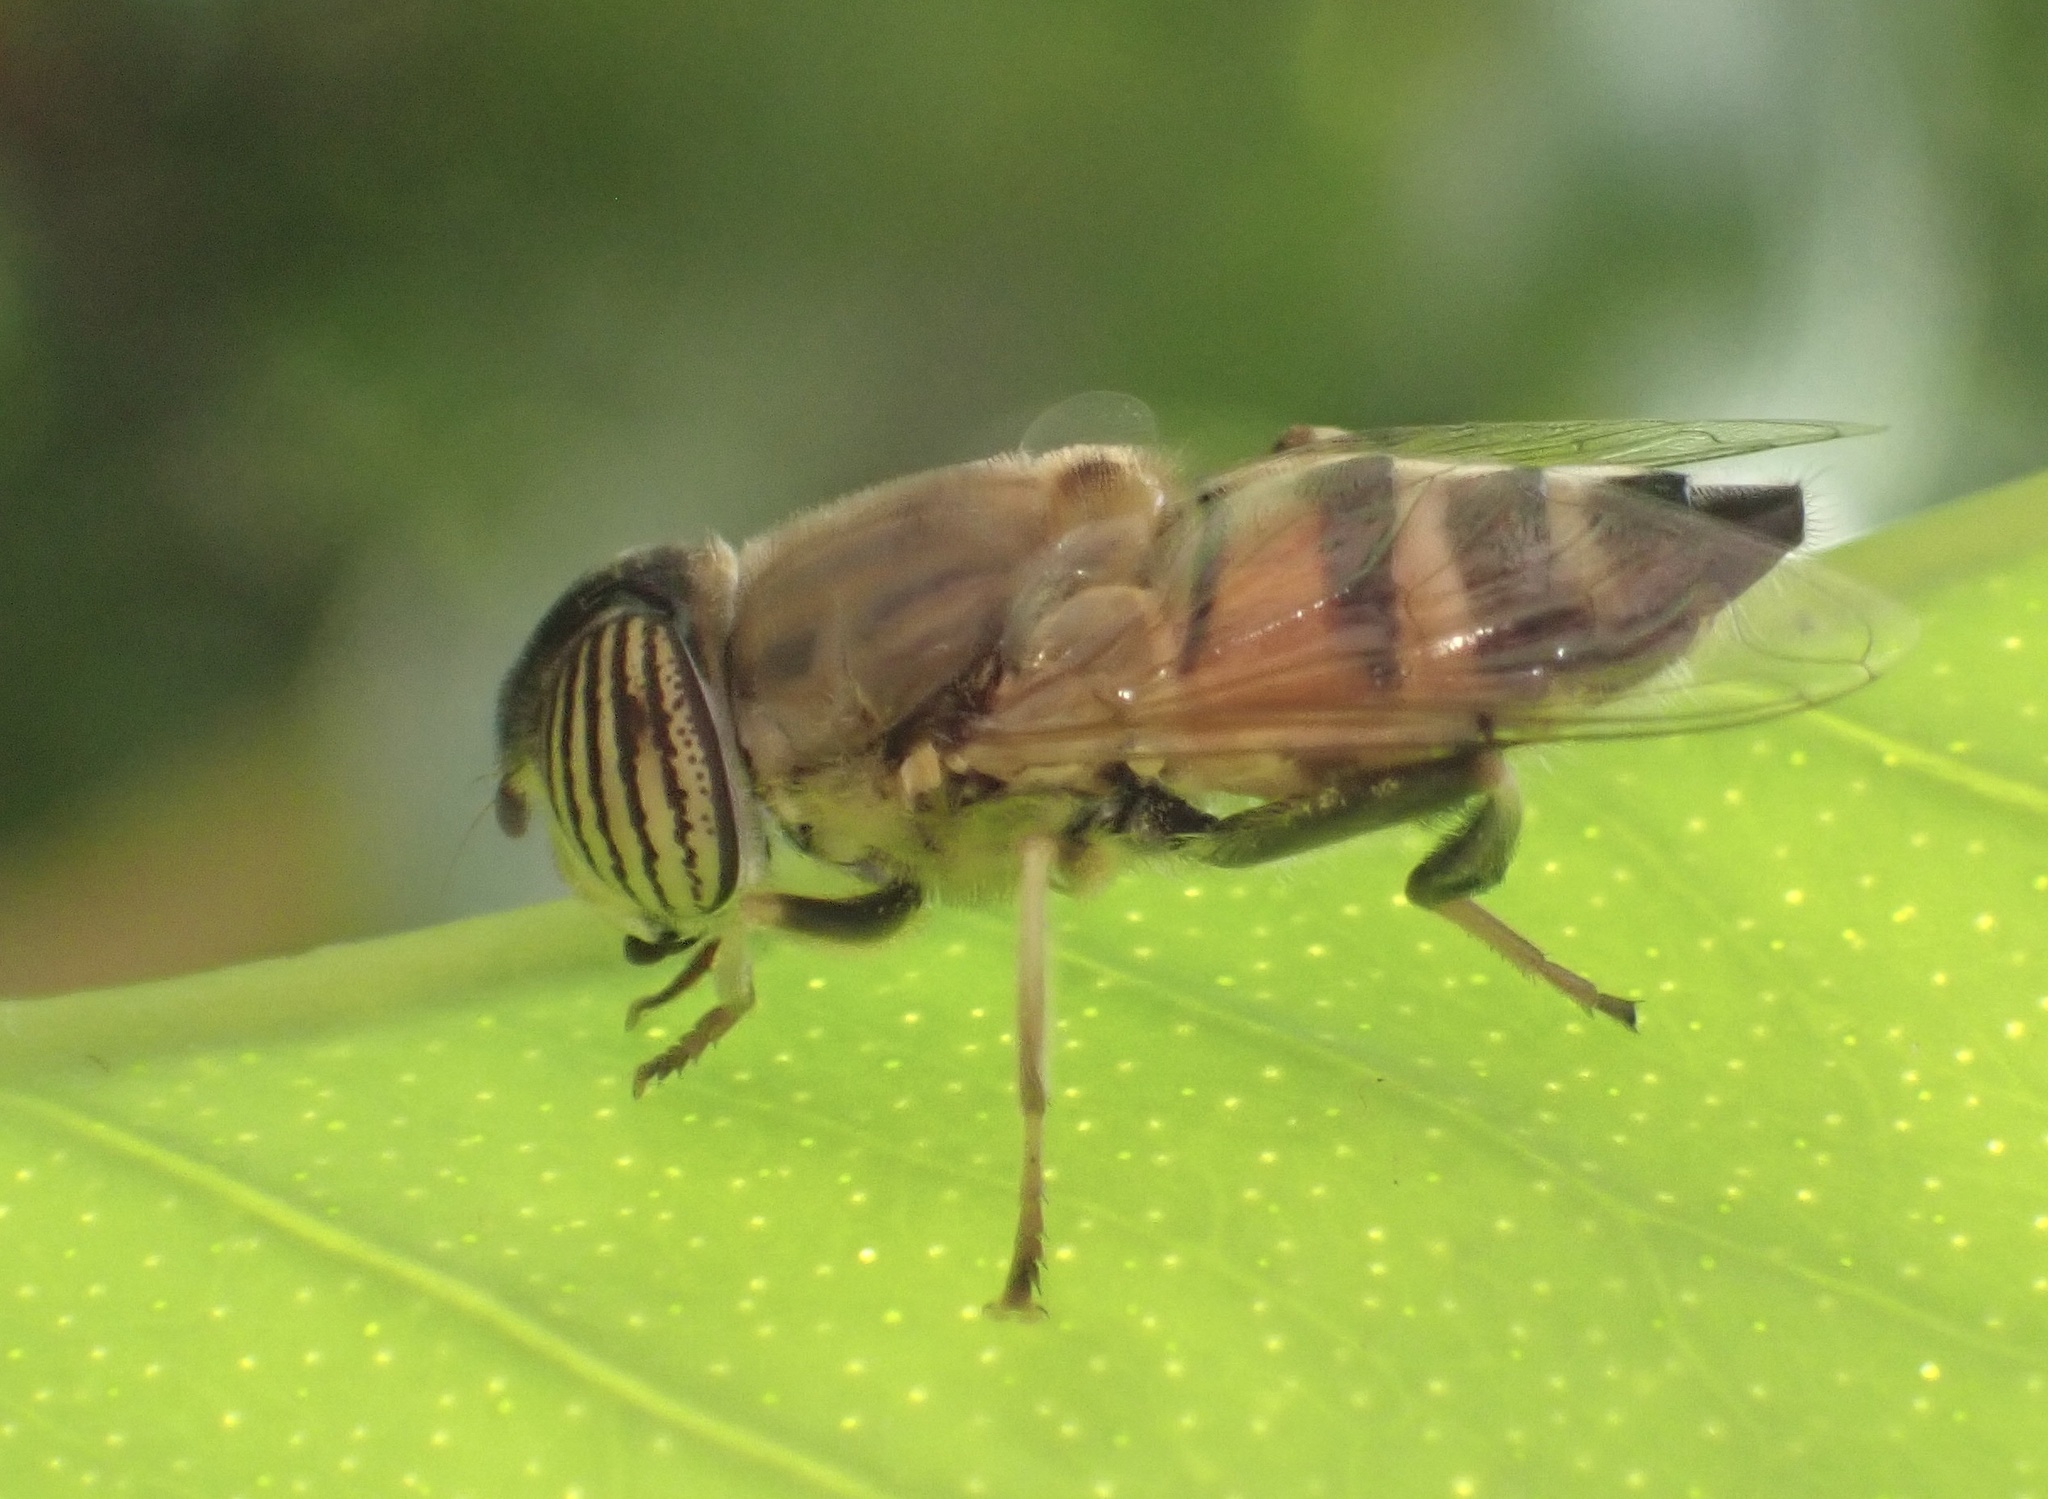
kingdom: Animalia
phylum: Arthropoda
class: Insecta
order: Diptera
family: Syrphidae
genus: Eristalinus
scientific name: Eristalinus taeniops
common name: Syrphid fly
